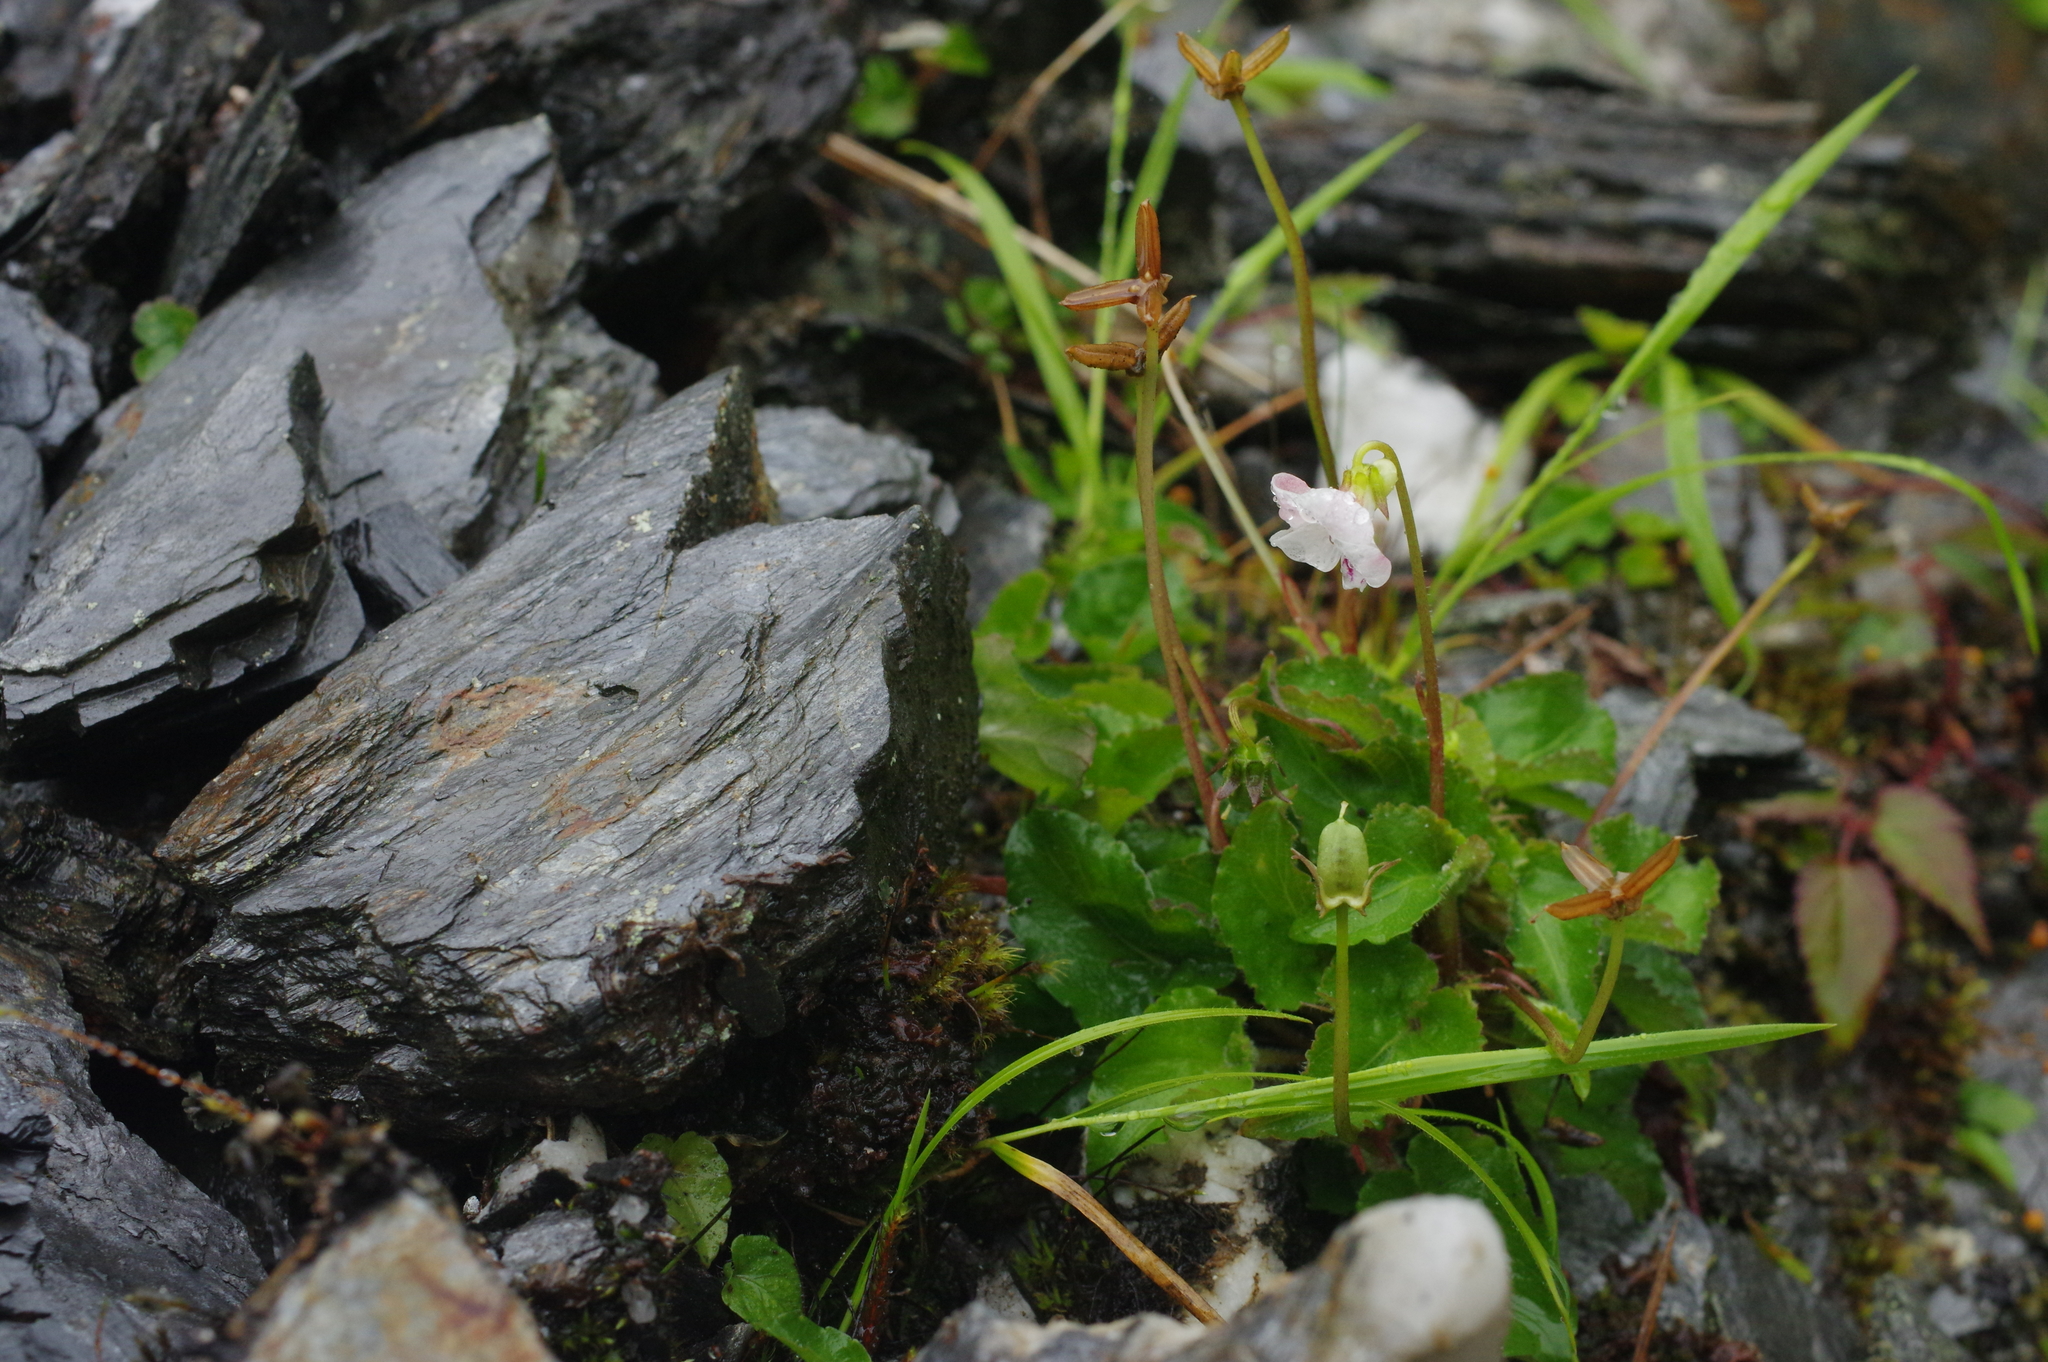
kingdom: Plantae
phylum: Tracheophyta
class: Magnoliopsida
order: Malpighiales
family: Violaceae
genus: Viola
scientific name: Viola adenothrix
